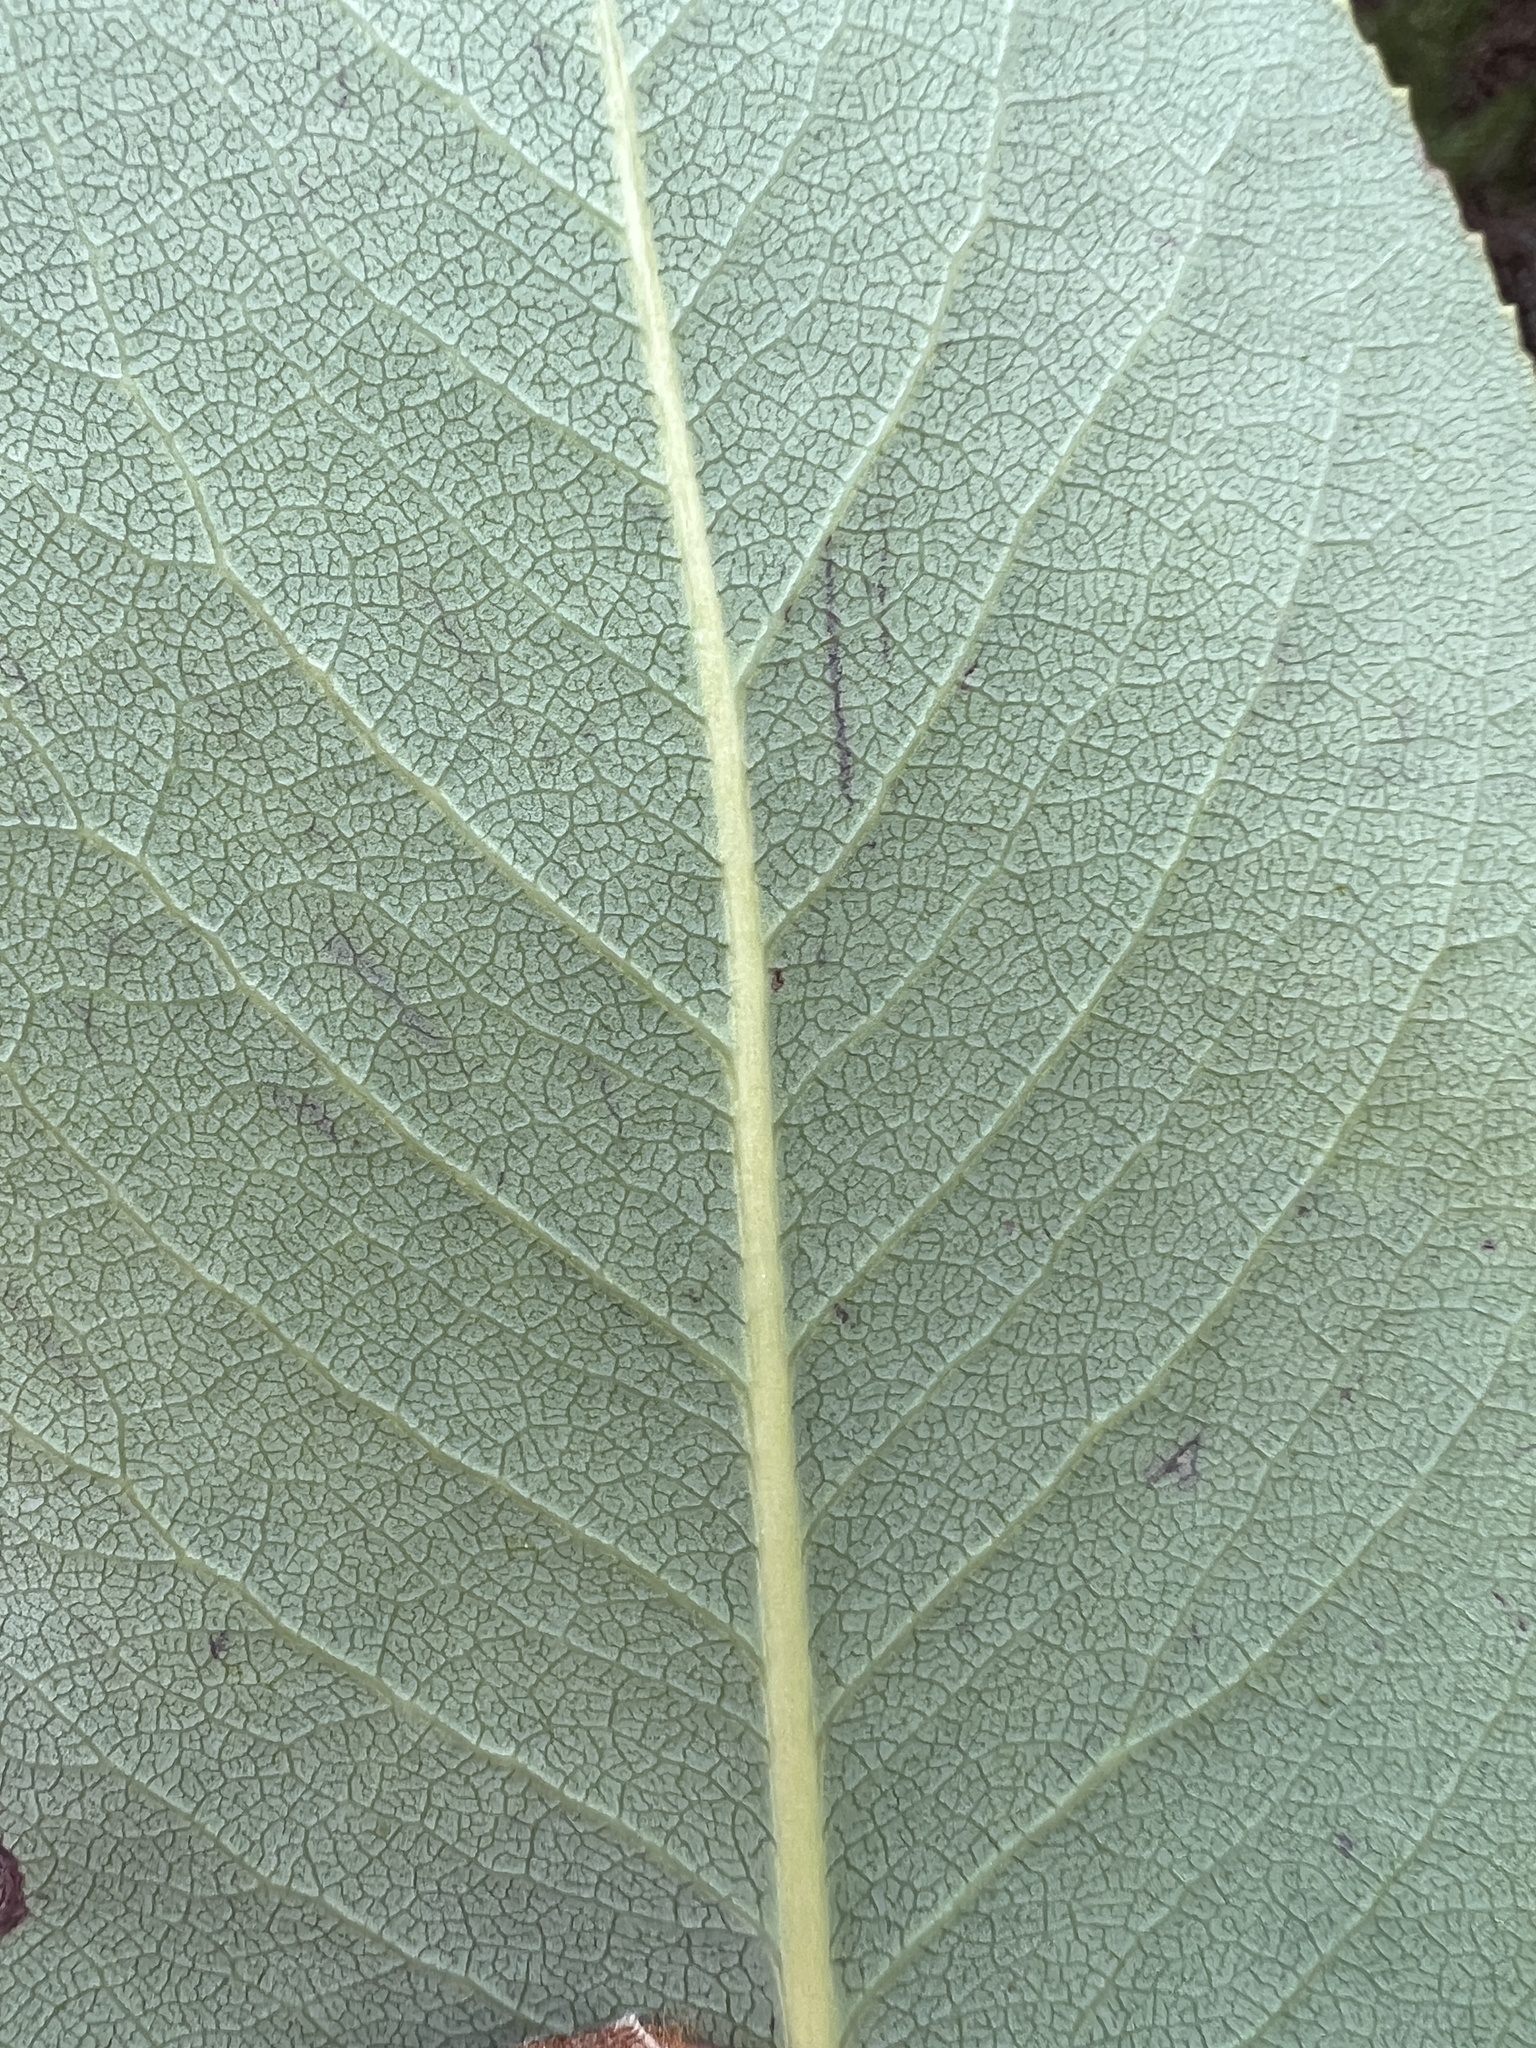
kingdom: Plantae
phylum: Tracheophyta
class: Magnoliopsida
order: Ericales
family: Ericaceae
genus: Arbutus
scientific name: Arbutus menziesii
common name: Pacific madrone
